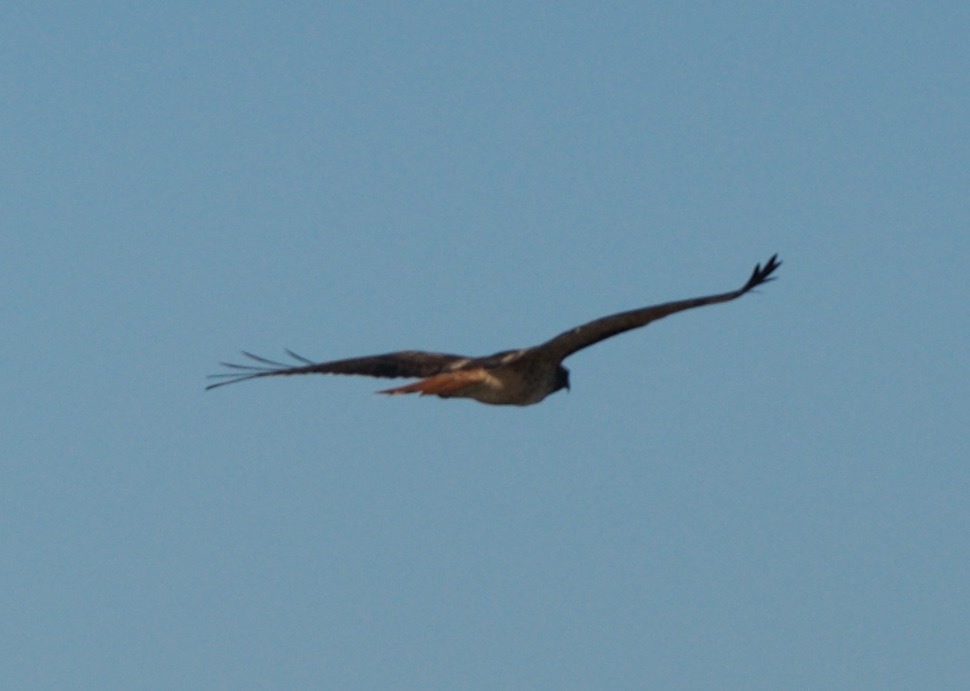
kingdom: Animalia
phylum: Chordata
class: Aves
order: Accipitriformes
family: Accipitridae
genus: Buteo
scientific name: Buteo jamaicensis
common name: Red-tailed hawk
